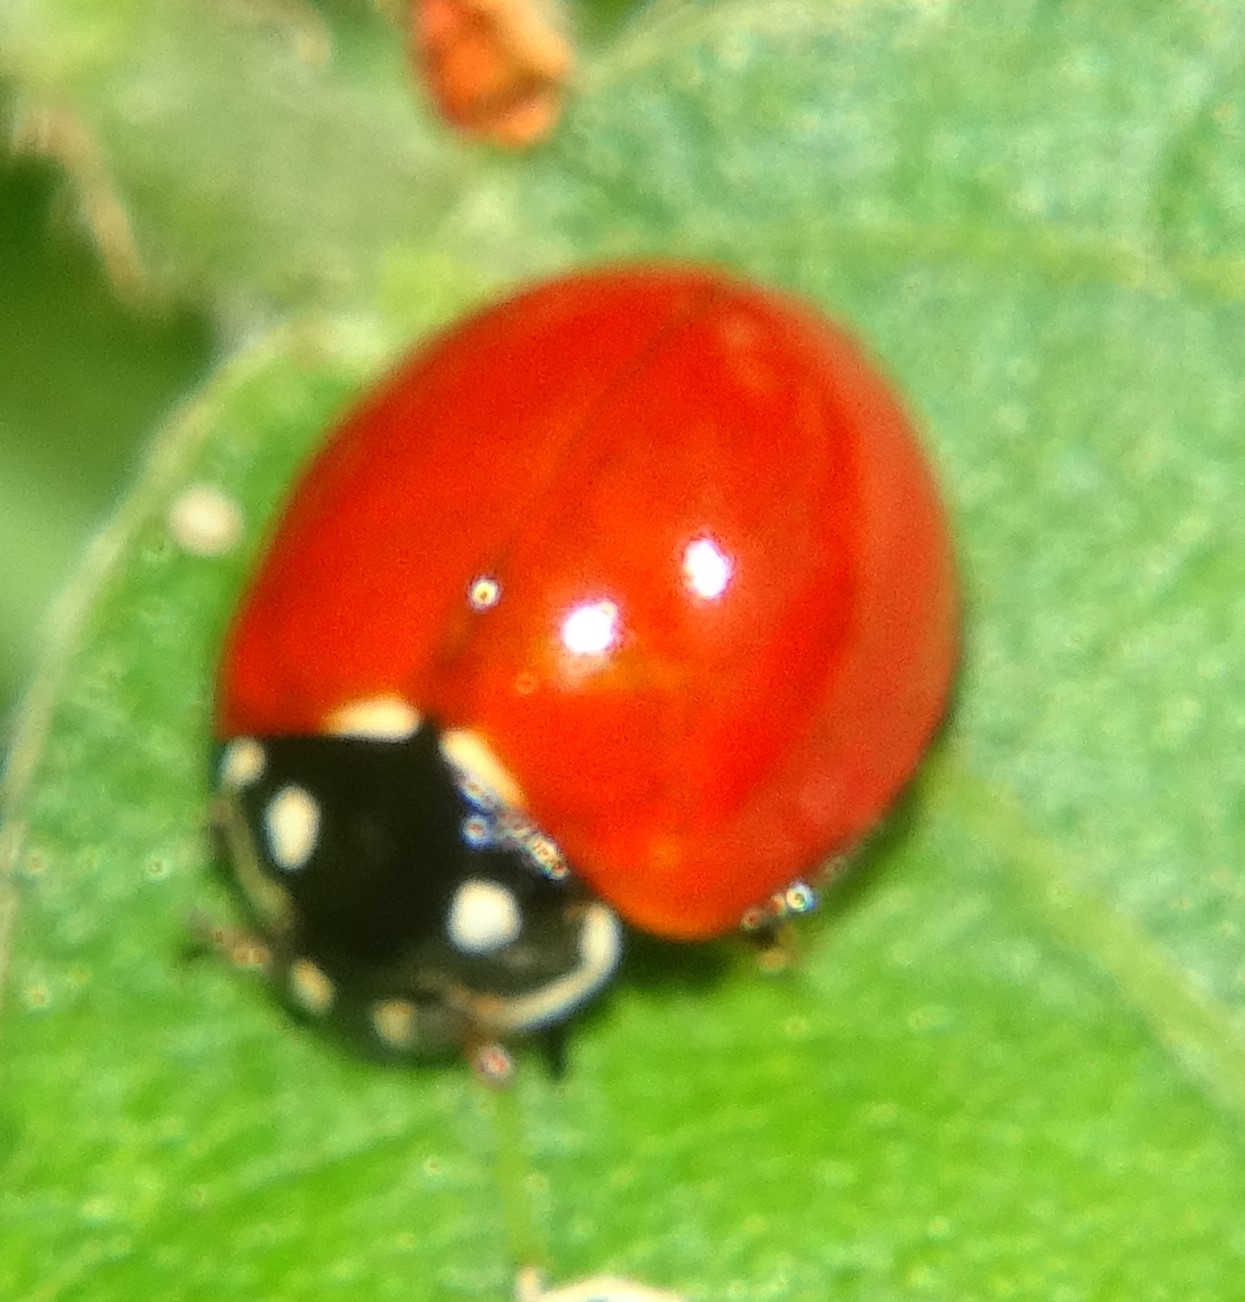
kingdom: Animalia
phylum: Arthropoda
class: Insecta
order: Coleoptera
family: Coccinellidae
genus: Cycloneda
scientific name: Cycloneda sanguinea
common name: Ladybird beetle
